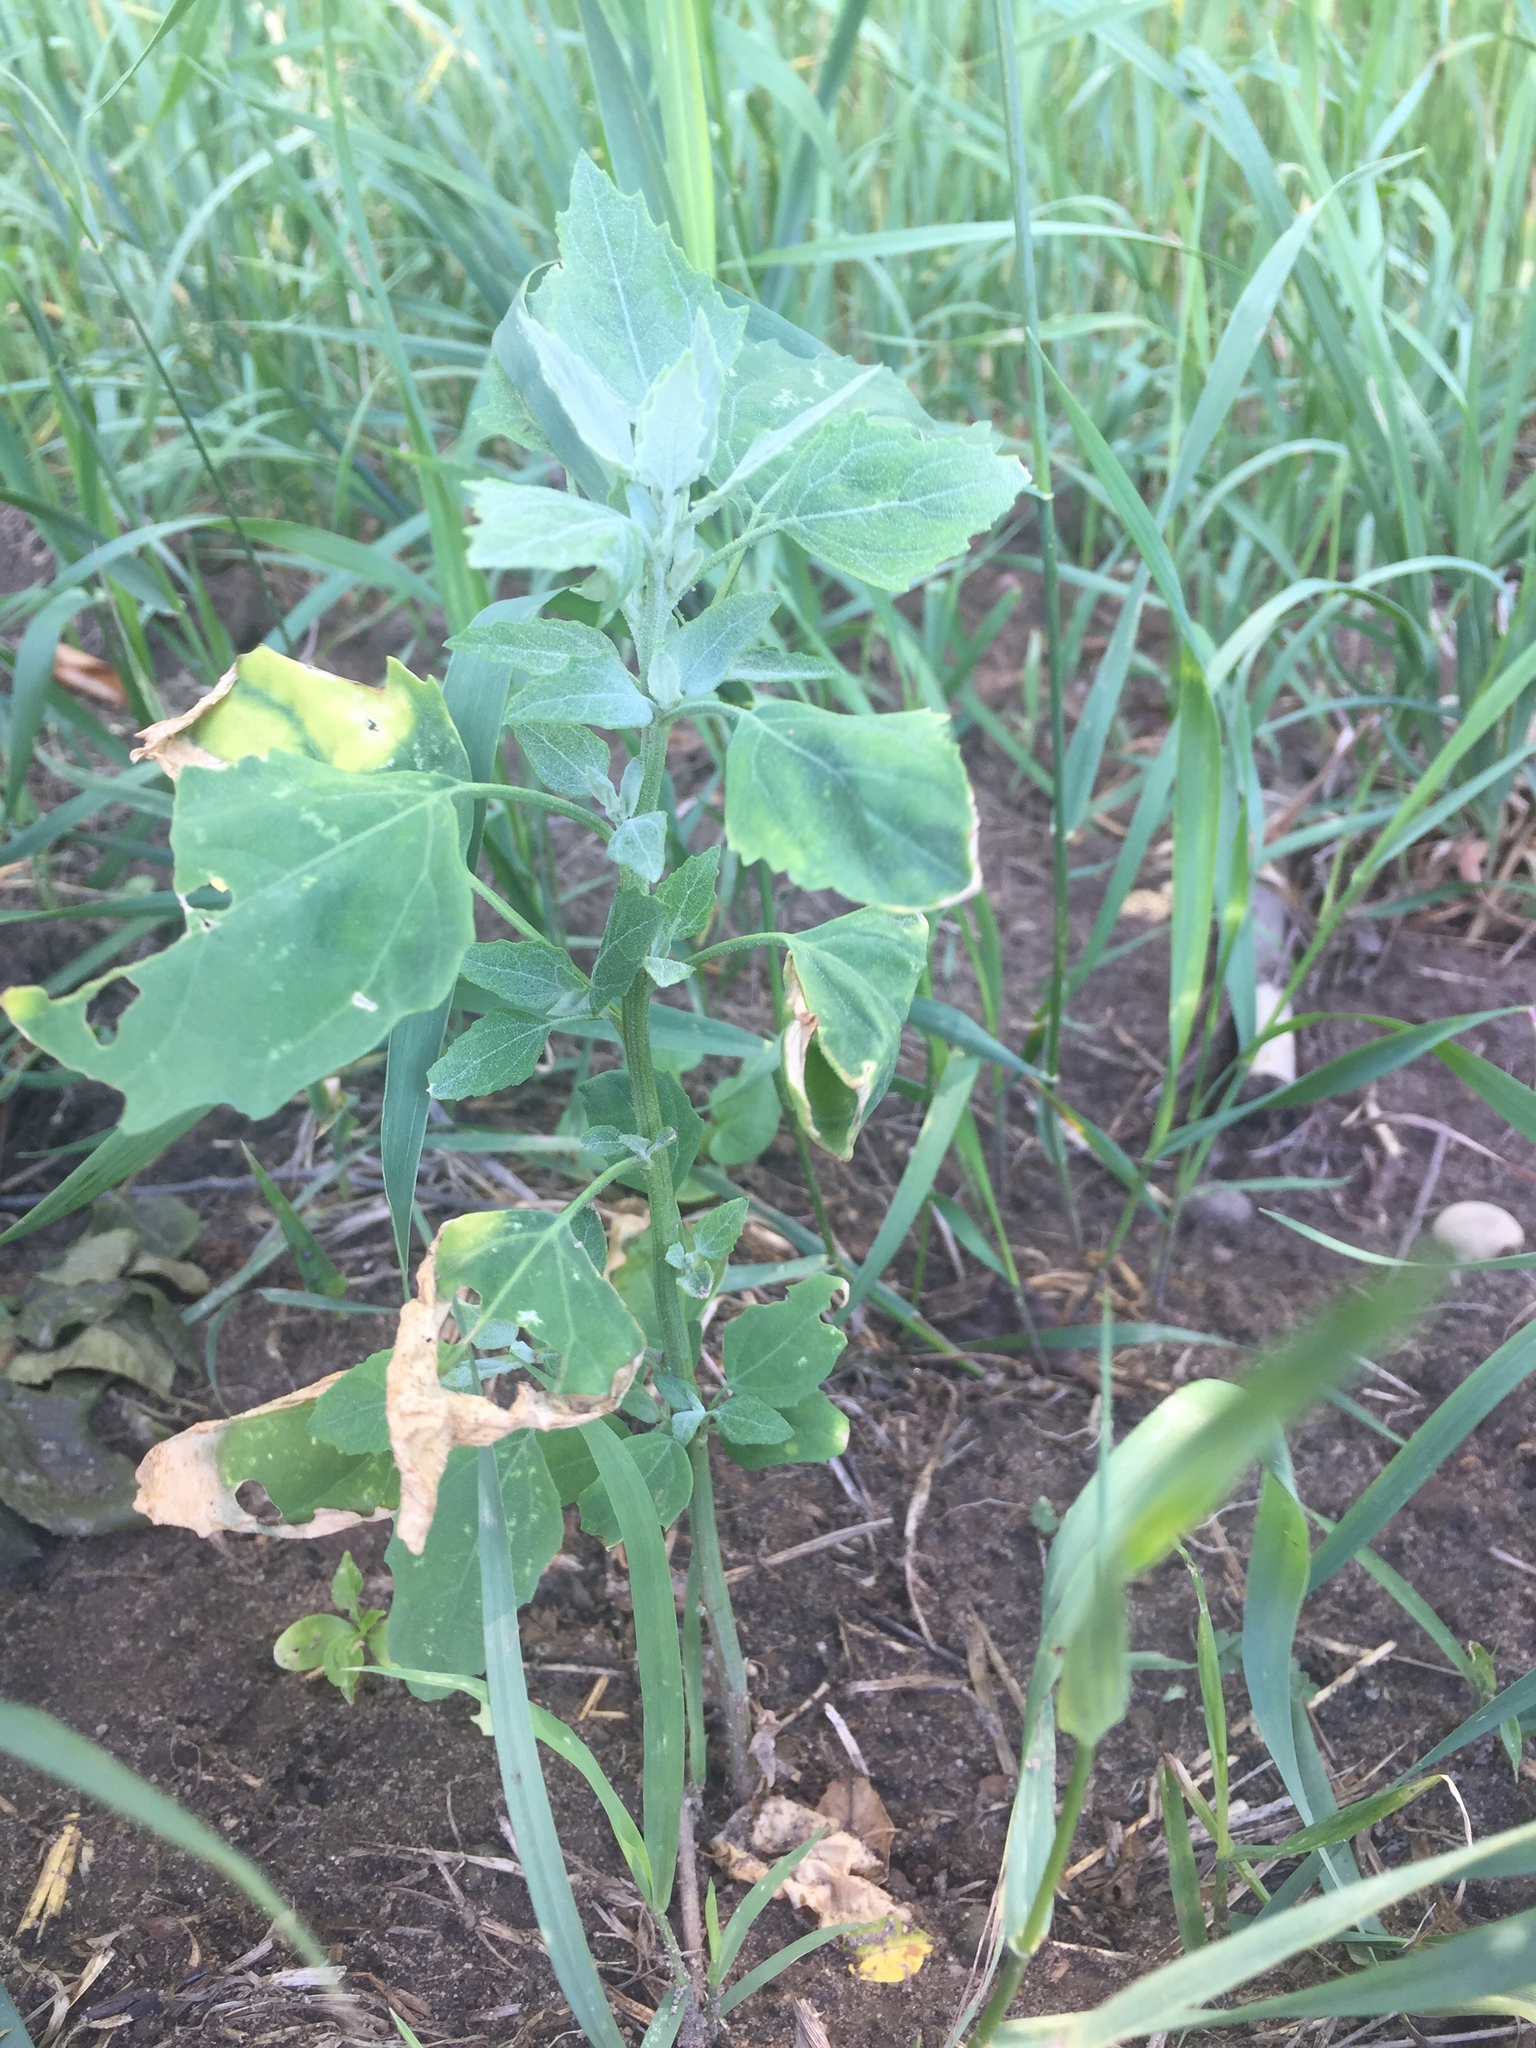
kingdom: Plantae
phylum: Tracheophyta
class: Magnoliopsida
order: Caryophyllales
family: Amaranthaceae
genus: Chenopodium
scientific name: Chenopodium album
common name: Fat-hen
